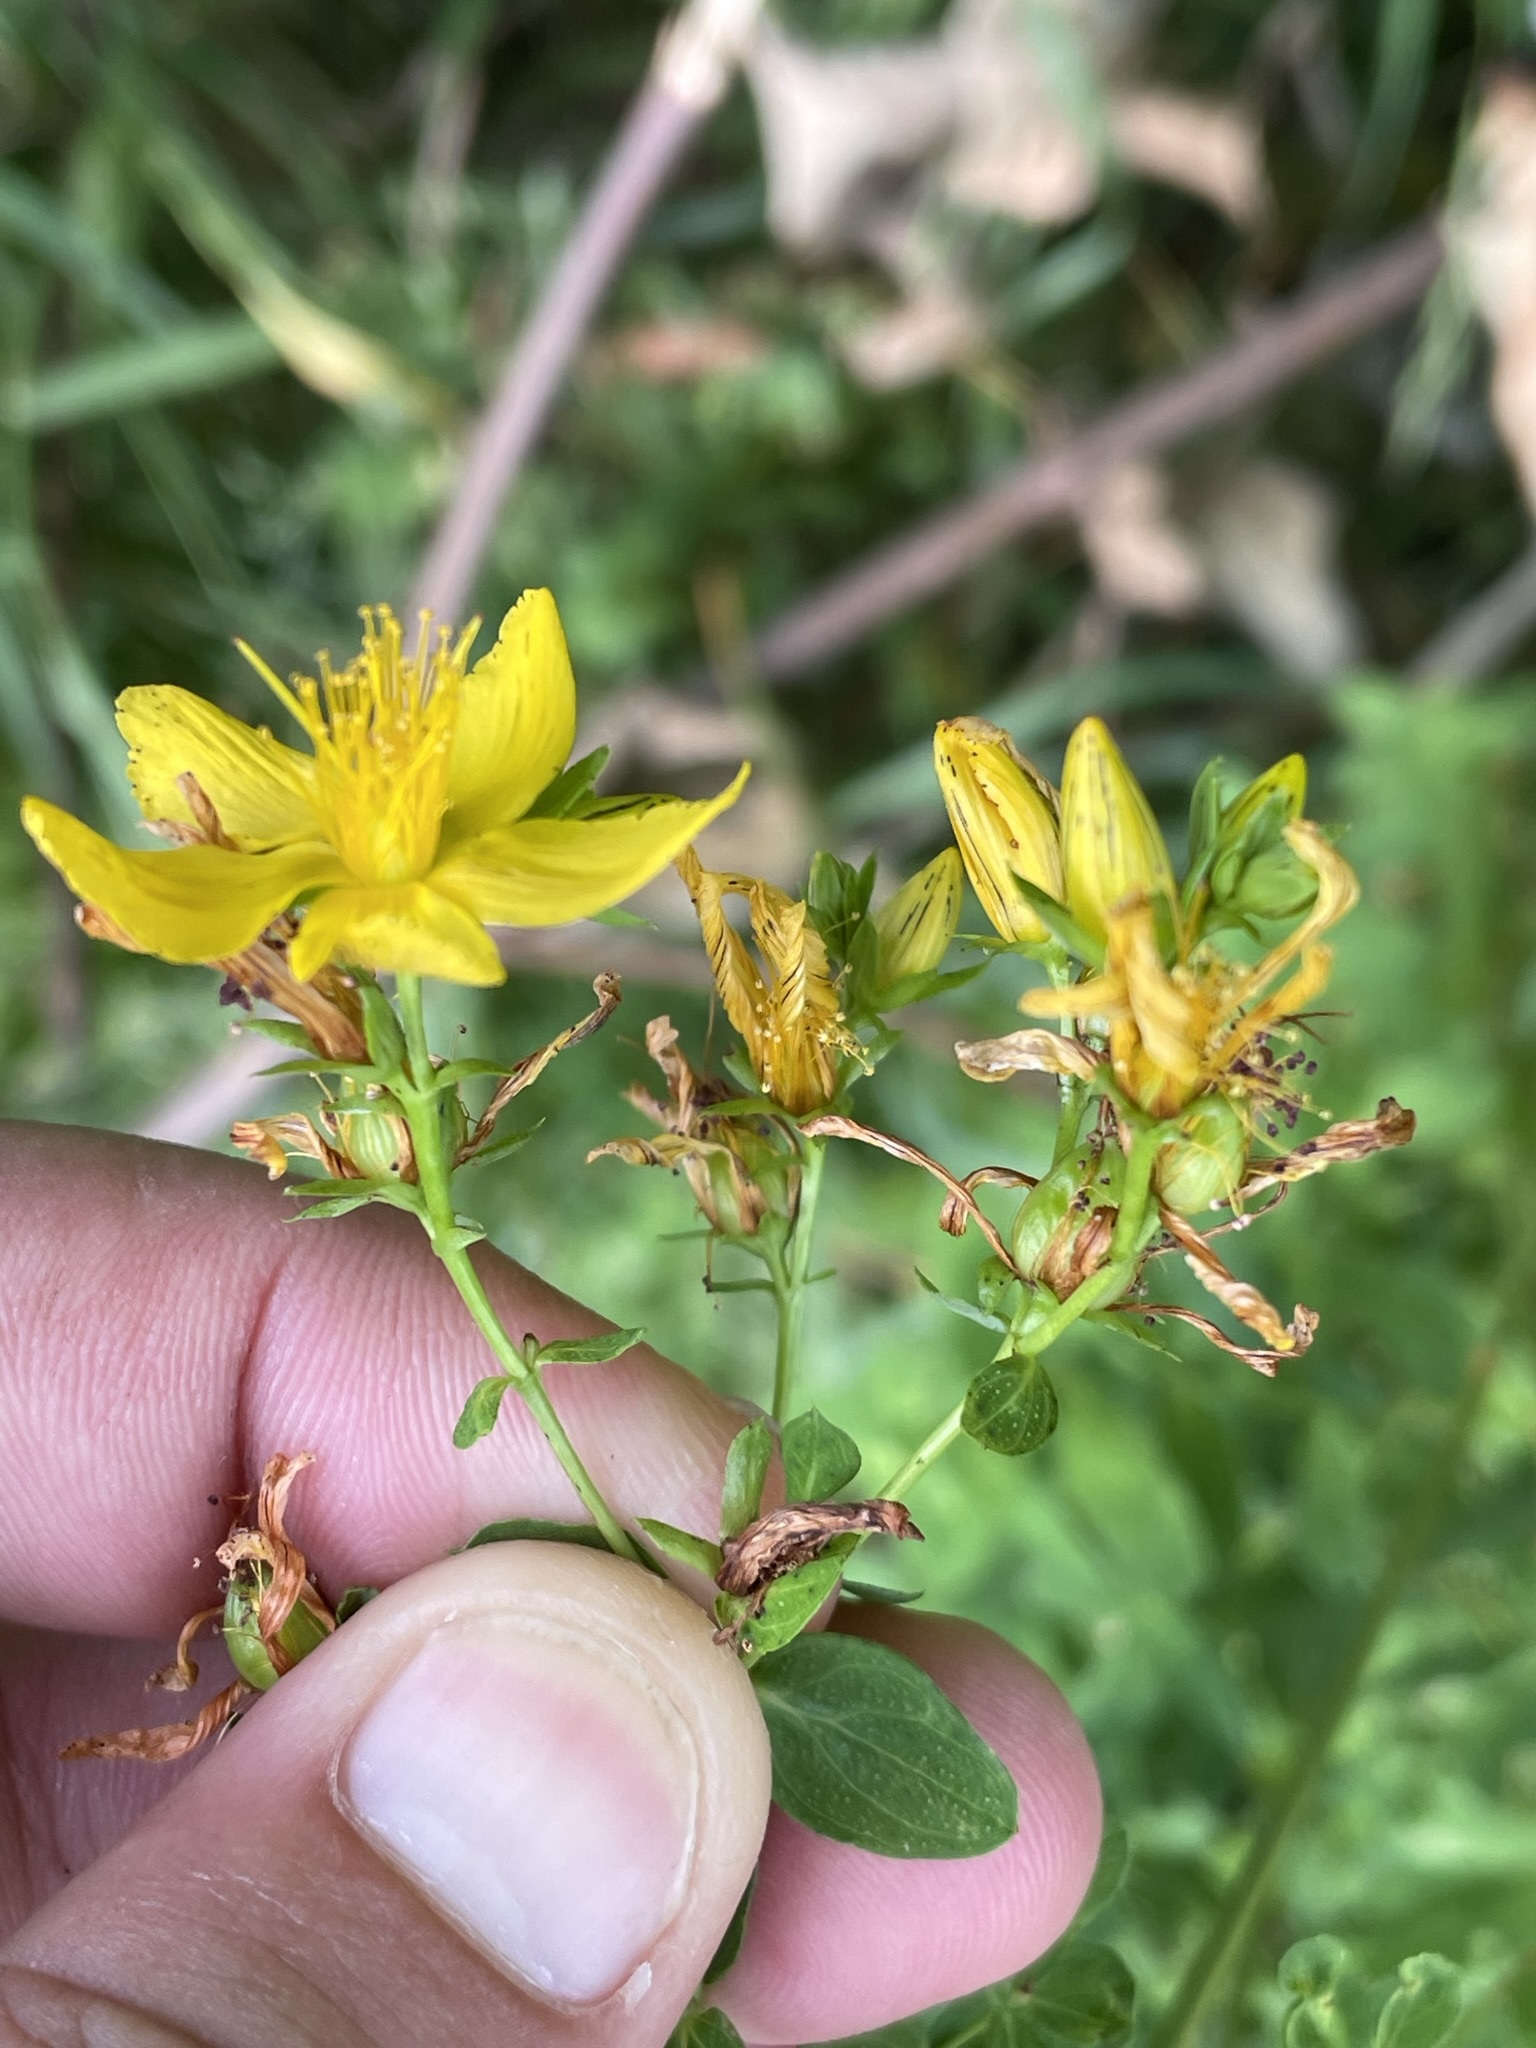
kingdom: Plantae
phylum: Tracheophyta
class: Magnoliopsida
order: Malpighiales
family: Hypericaceae
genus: Hypericum
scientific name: Hypericum perforatum
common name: Common st. johnswort
